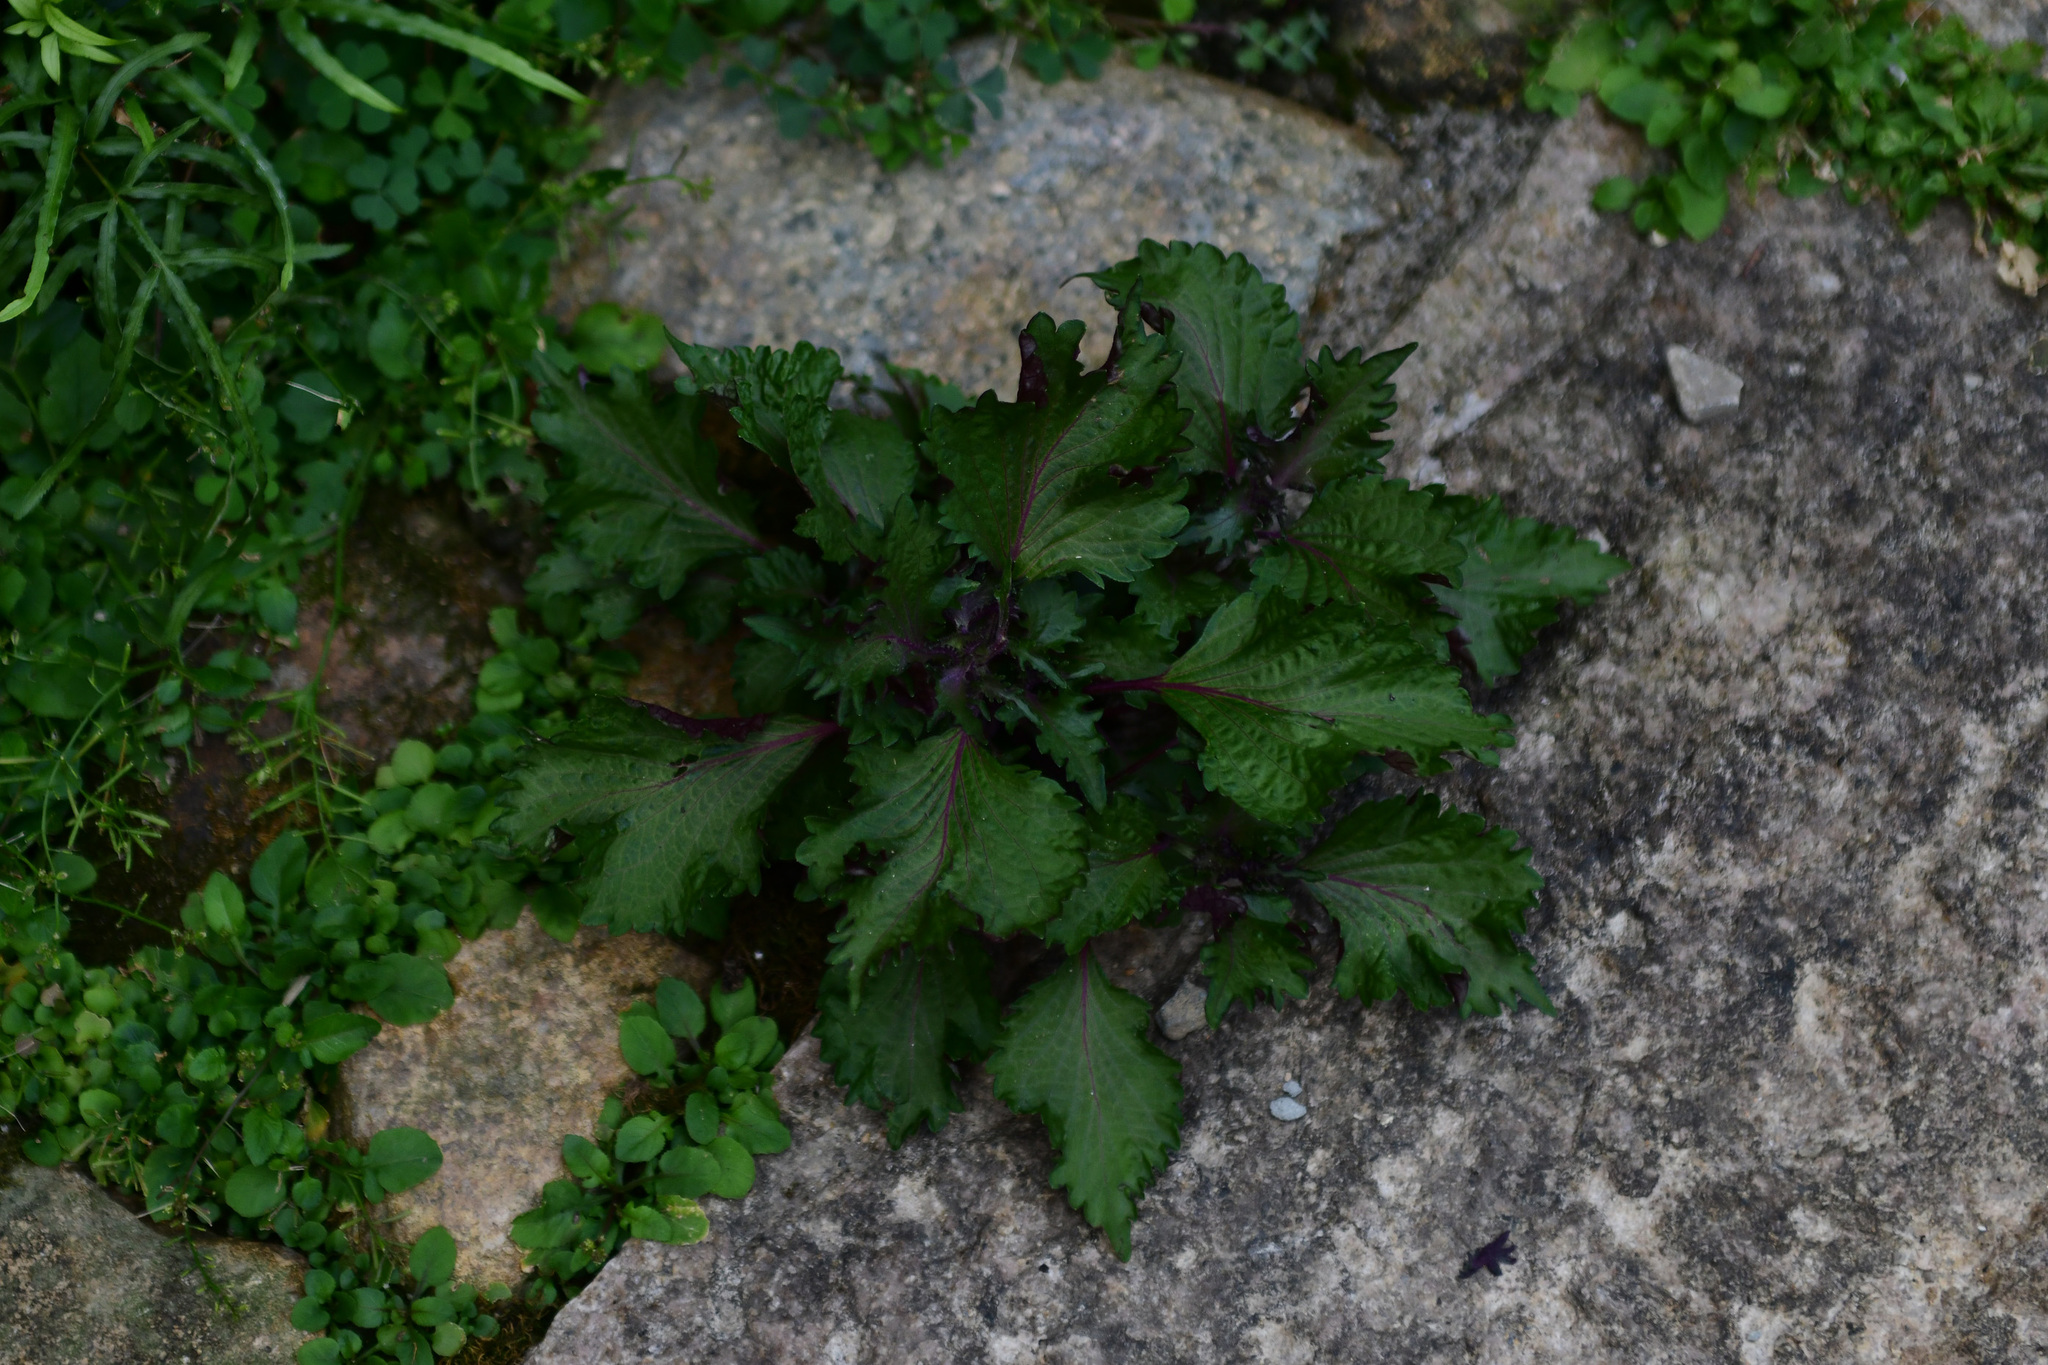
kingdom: Plantae
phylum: Tracheophyta
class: Magnoliopsida
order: Lamiales
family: Lamiaceae
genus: Perilla
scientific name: Perilla frutescens
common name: Perilla
